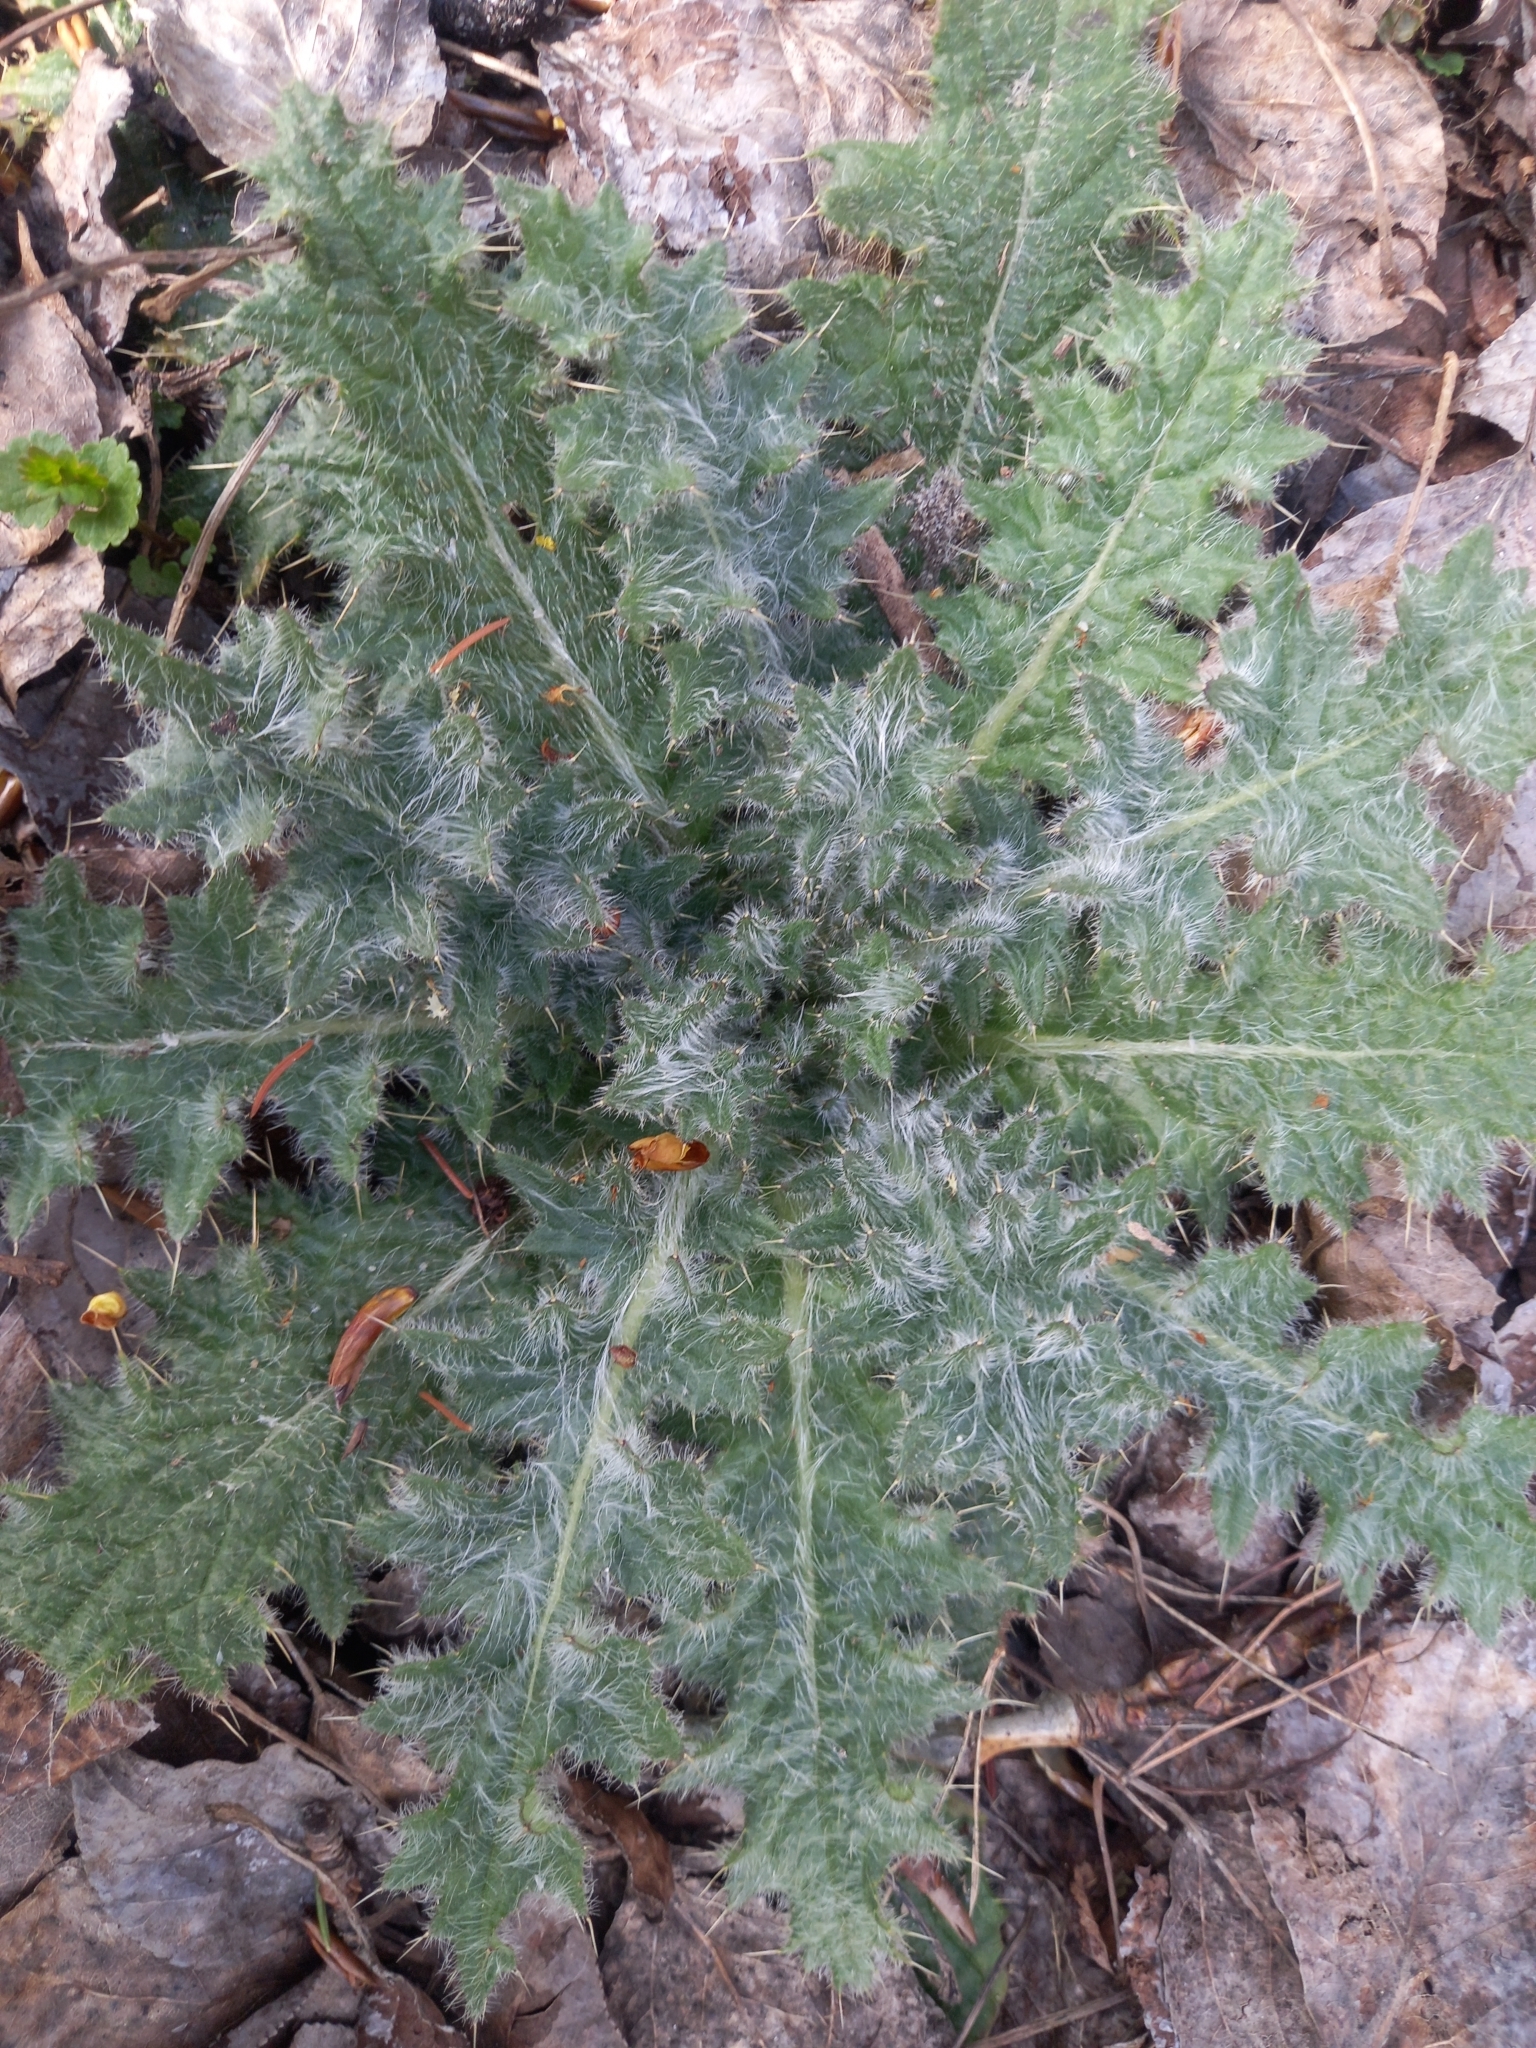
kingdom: Plantae
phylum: Tracheophyta
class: Magnoliopsida
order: Asterales
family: Asteraceae
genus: Cirsium
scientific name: Cirsium vulgare
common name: Bull thistle
